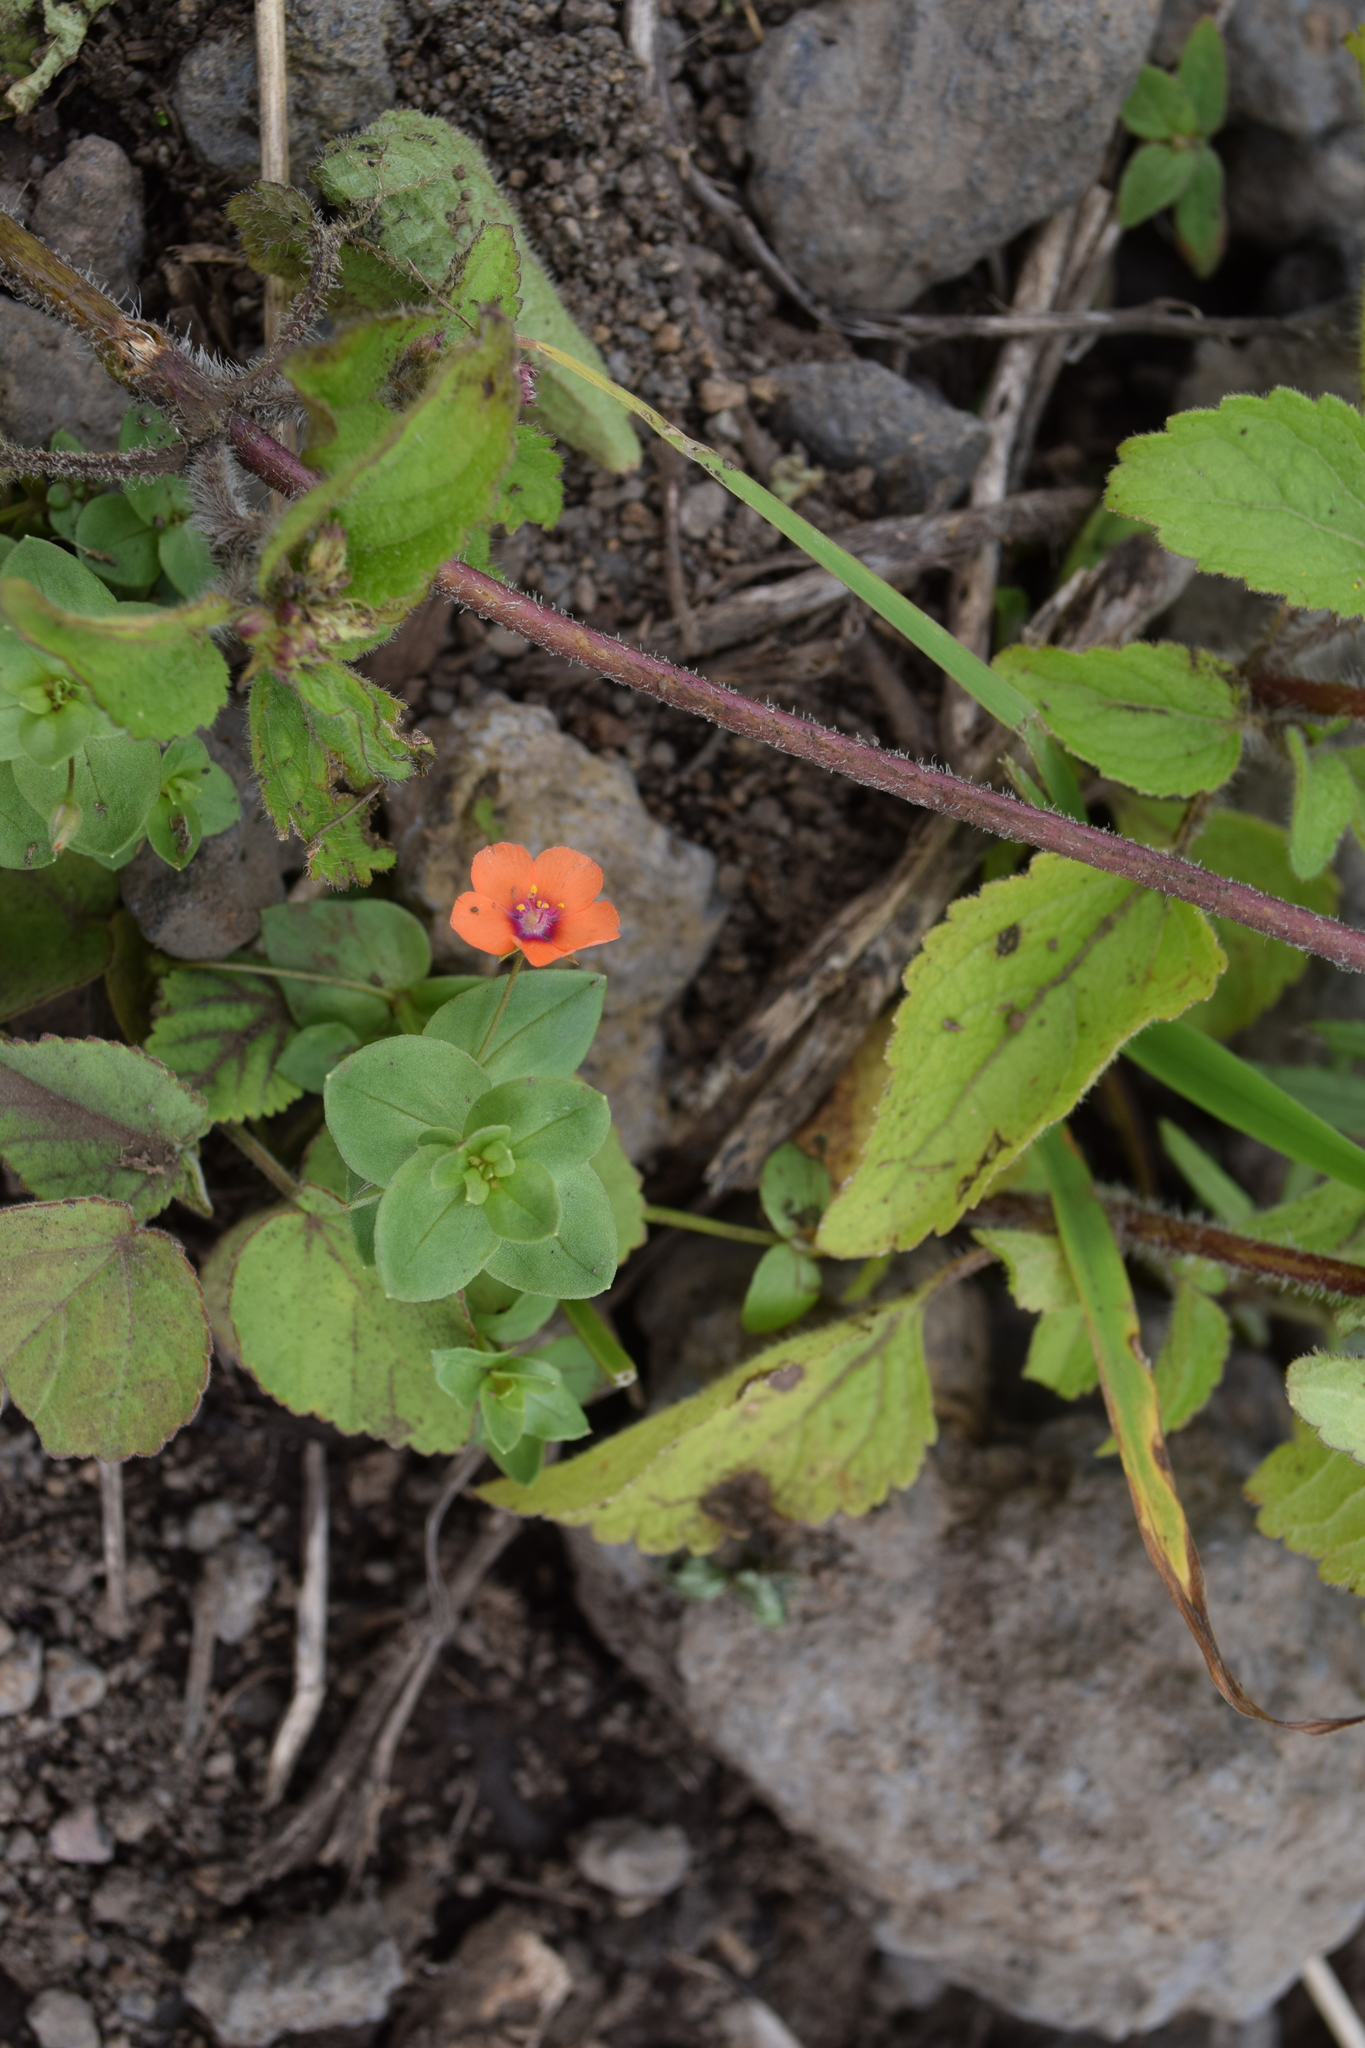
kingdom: Plantae
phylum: Tracheophyta
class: Magnoliopsida
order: Ericales
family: Primulaceae
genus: Lysimachia
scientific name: Lysimachia arvensis
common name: Scarlet pimpernel
